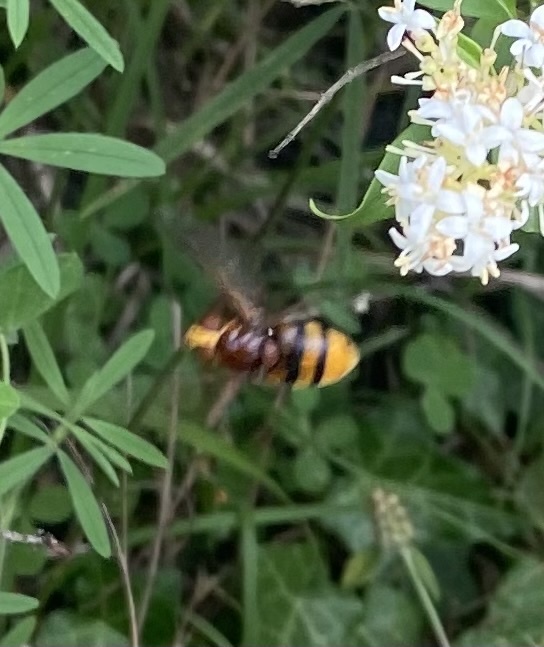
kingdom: Animalia
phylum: Arthropoda
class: Insecta
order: Diptera
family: Syrphidae
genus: Volucella
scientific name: Volucella zonaria
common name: Hornet hoverfly
